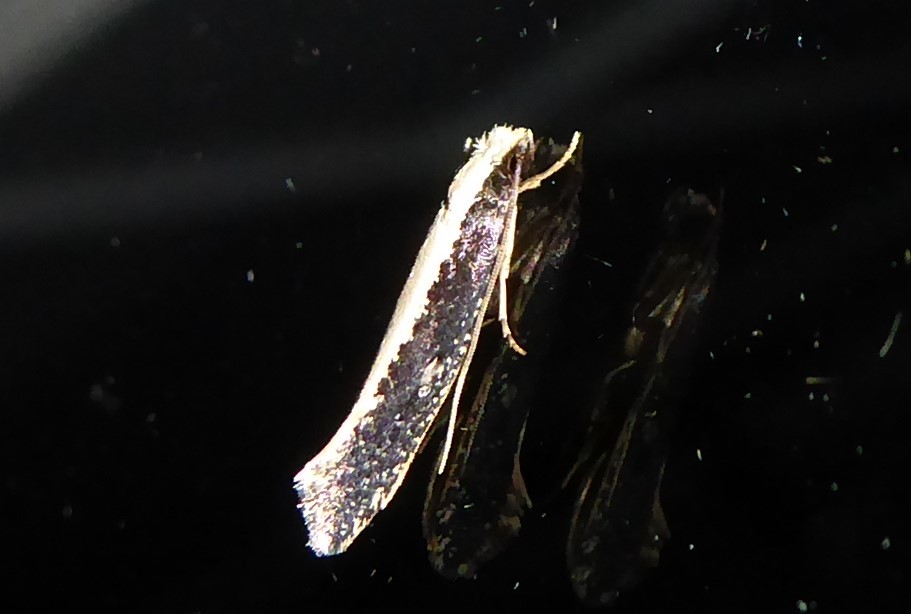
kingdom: Animalia
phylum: Arthropoda
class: Insecta
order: Lepidoptera
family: Tineidae
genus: Monopis
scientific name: Monopis ethelella
